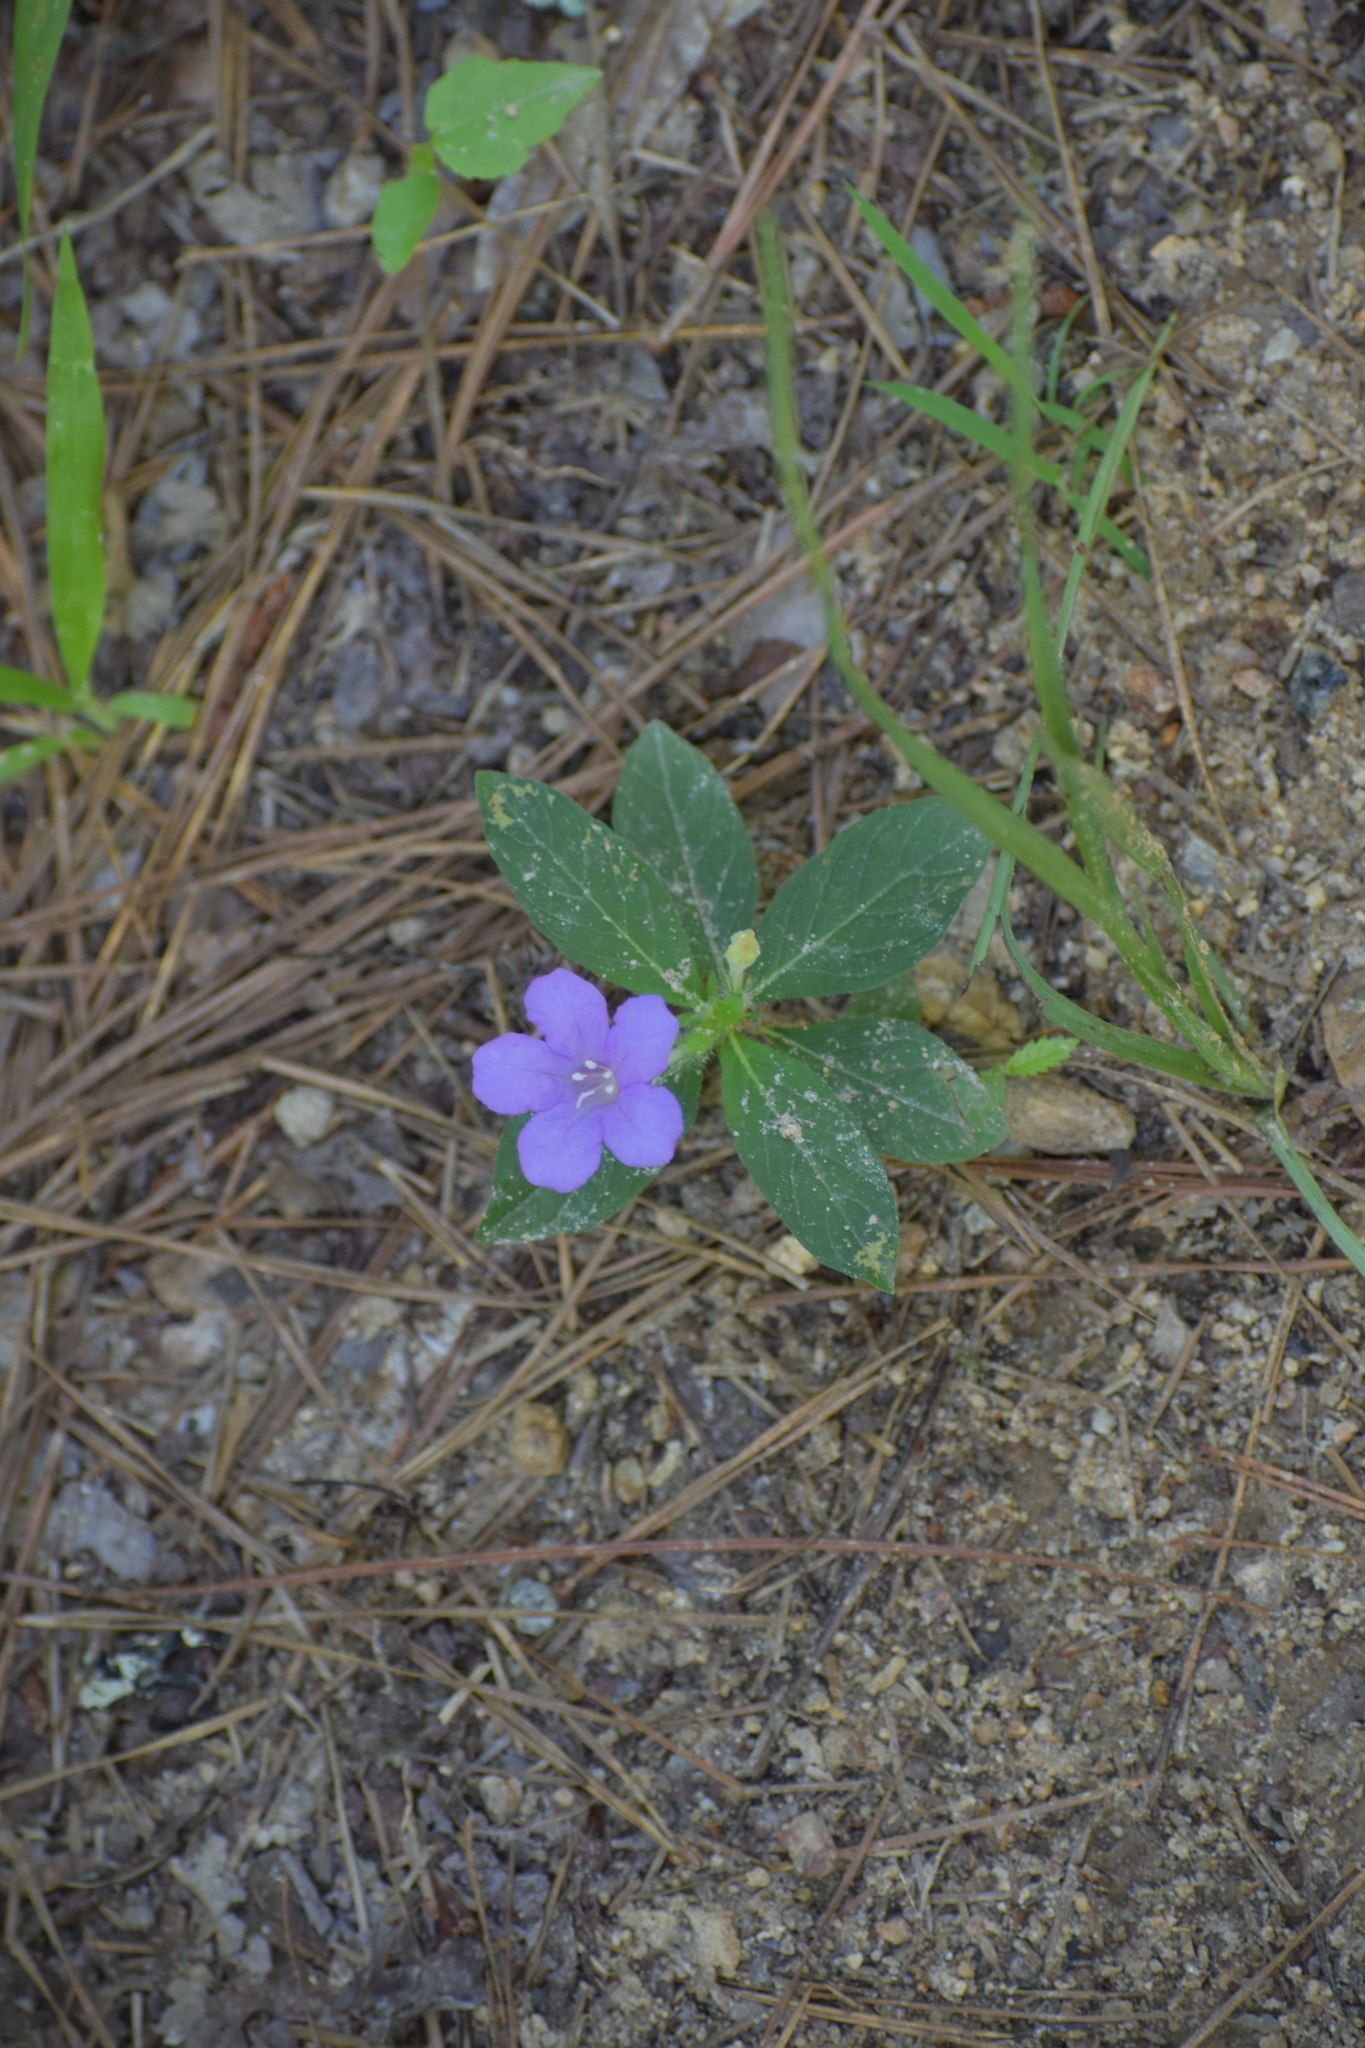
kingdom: Plantae
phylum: Tracheophyta
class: Magnoliopsida
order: Lamiales
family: Acanthaceae
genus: Ruellia
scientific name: Ruellia caroliniensis
